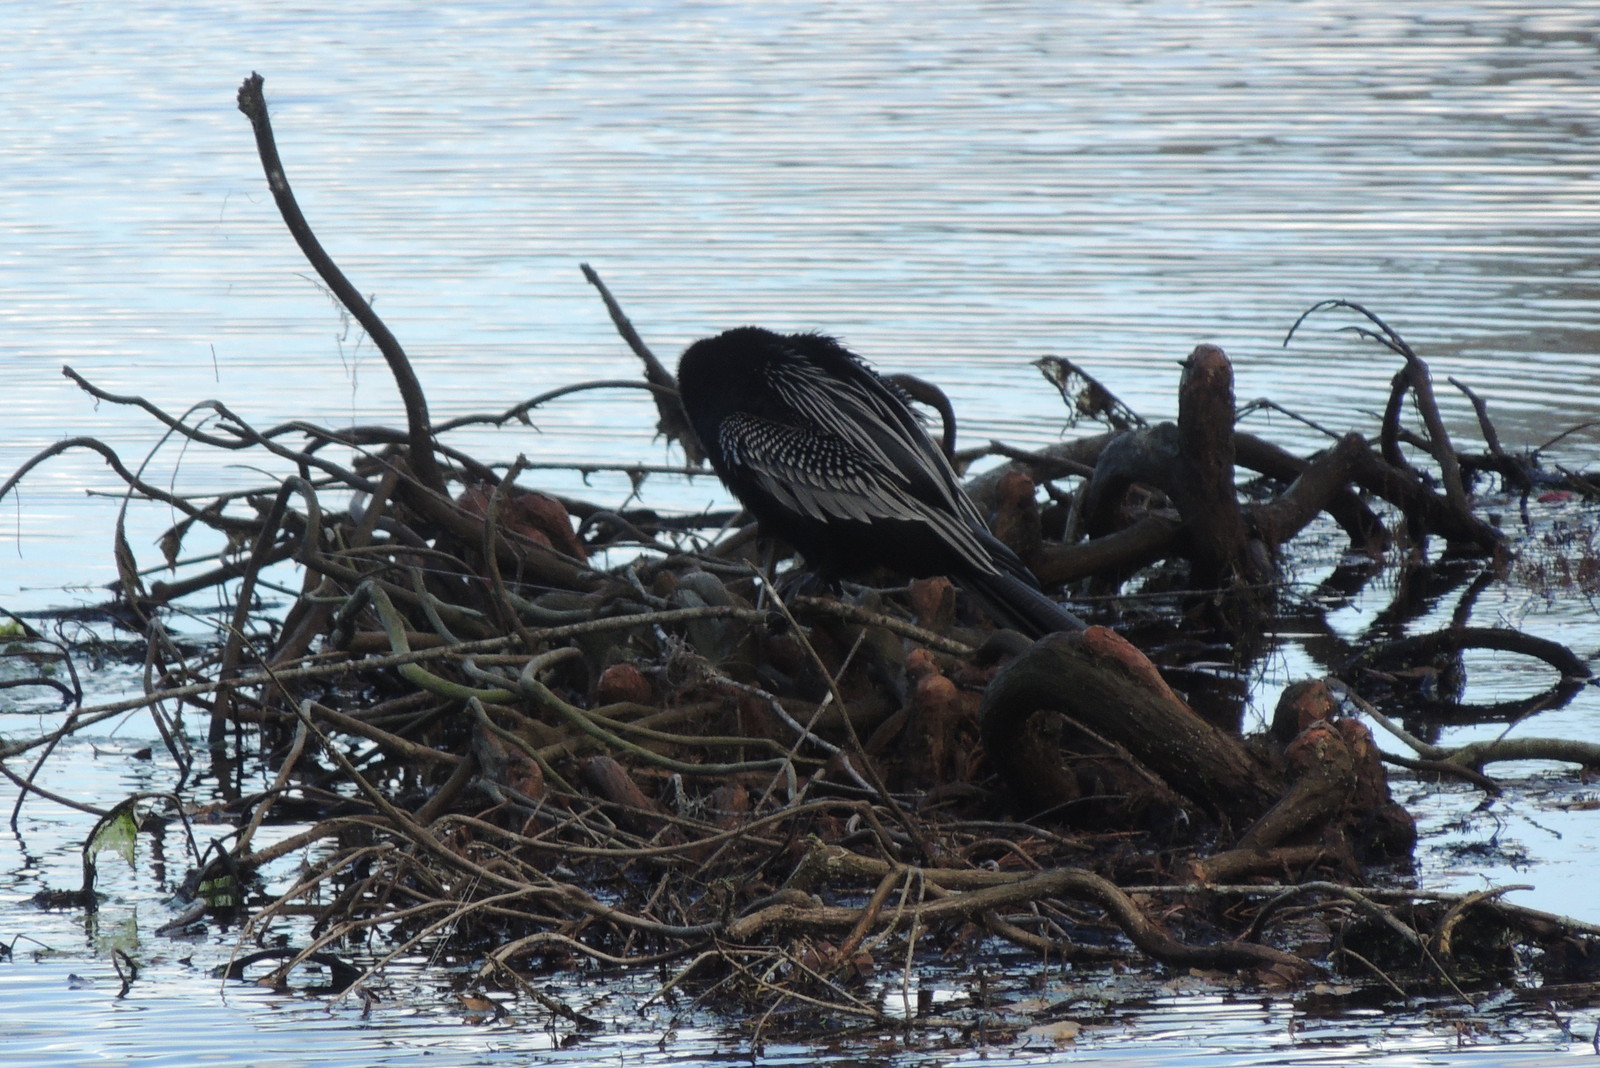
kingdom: Animalia
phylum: Chordata
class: Aves
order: Suliformes
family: Anhingidae
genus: Anhinga
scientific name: Anhinga anhinga
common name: Anhinga
